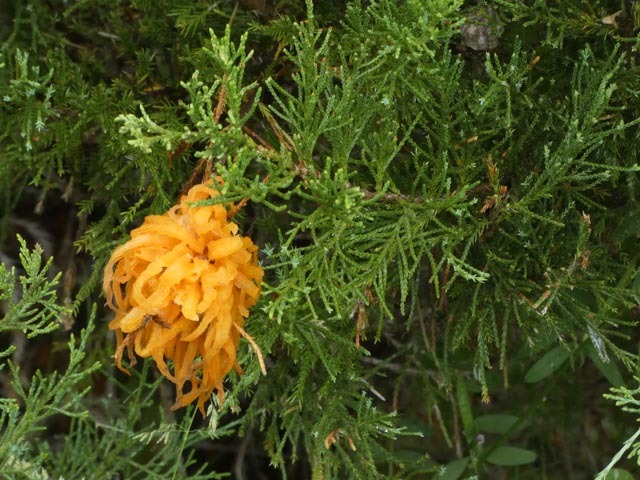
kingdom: Fungi
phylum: Basidiomycota
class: Pucciniomycetes
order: Pucciniales
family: Gymnosporangiaceae
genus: Gymnosporangium
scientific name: Gymnosporangium juniperi-virginianae
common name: Juniper-apple rust
